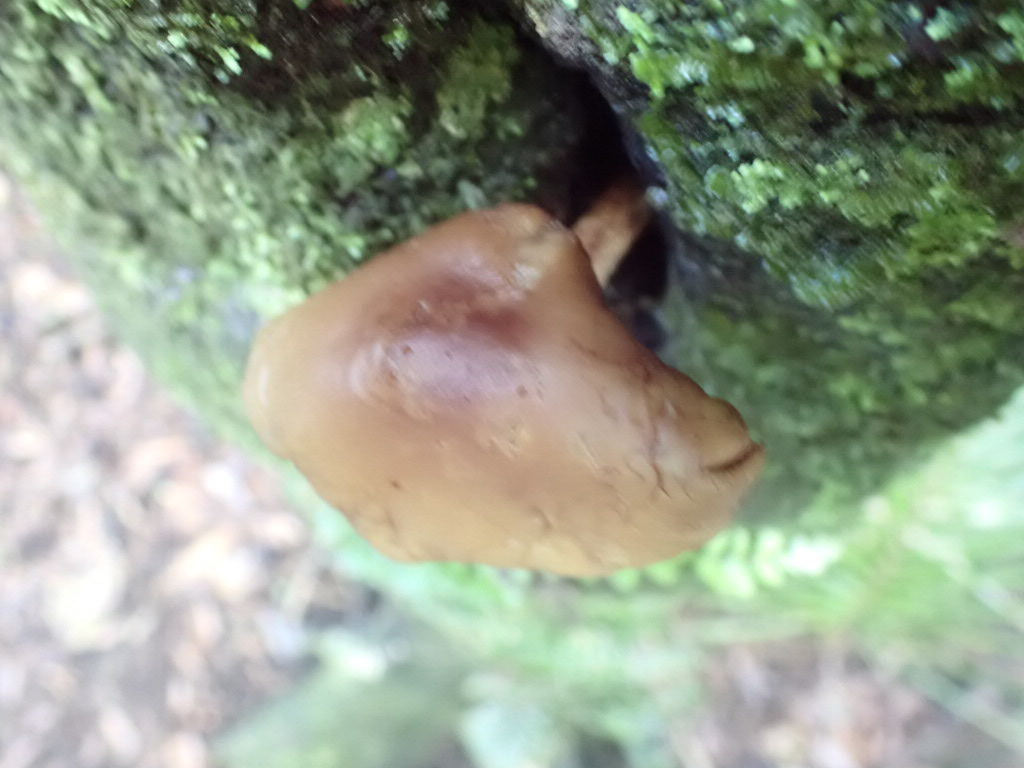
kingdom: Fungi
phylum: Basidiomycota
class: Agaricomycetes
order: Agaricales
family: Tubariaceae
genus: Cyclocybe
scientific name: Cyclocybe parasitica
